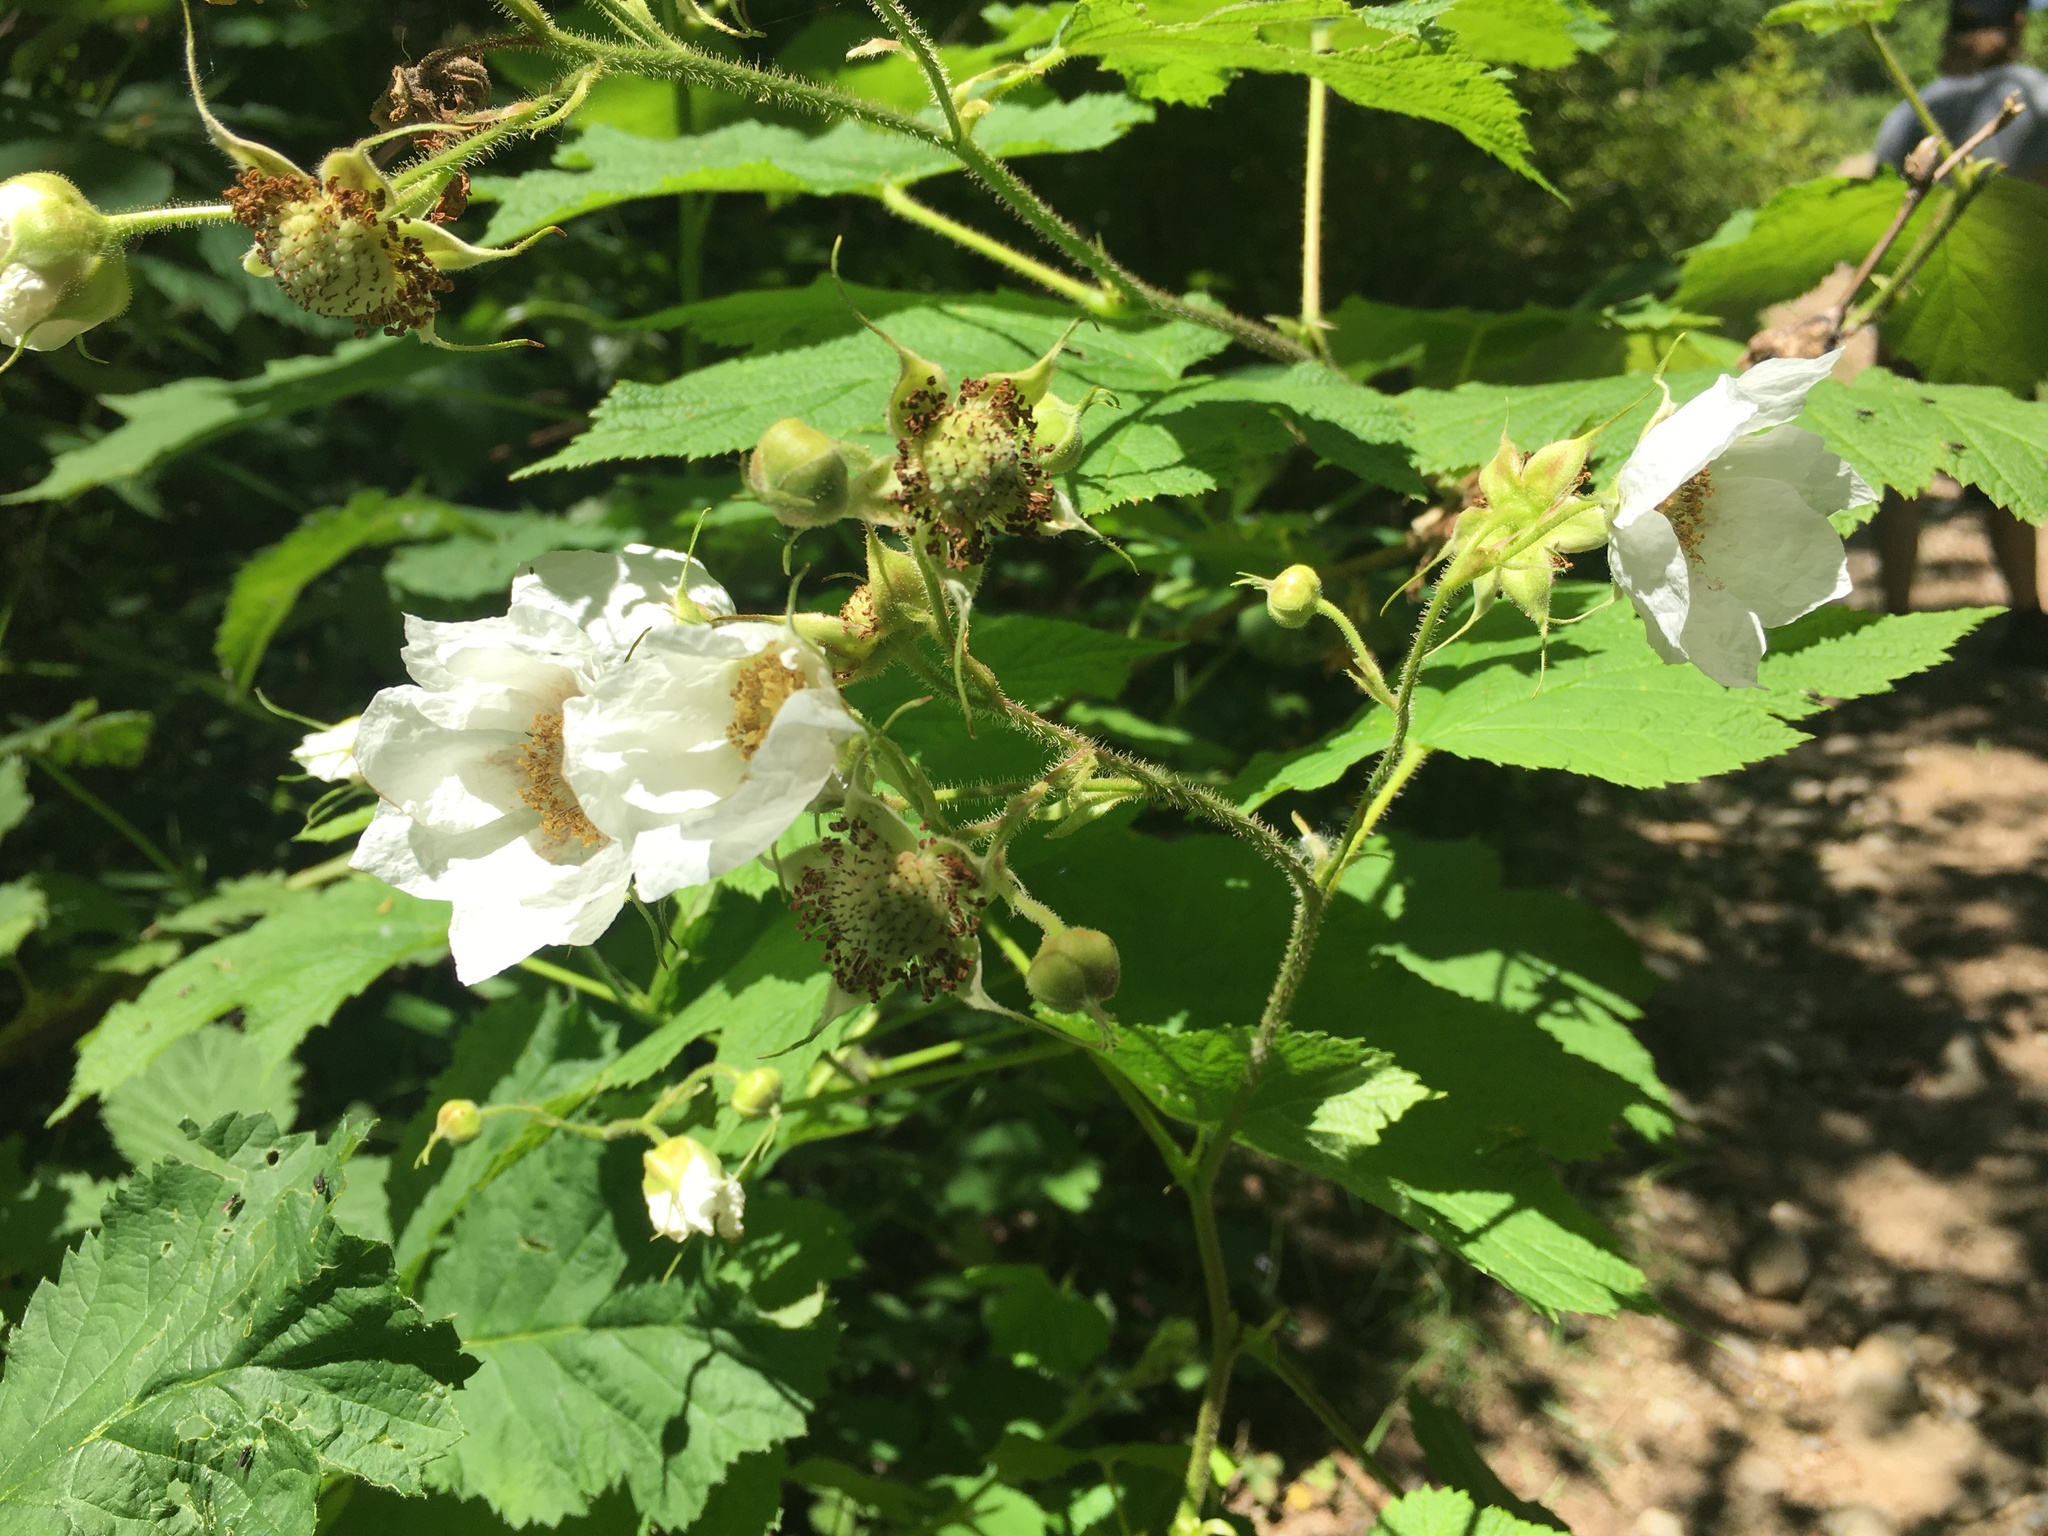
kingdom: Plantae
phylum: Tracheophyta
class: Magnoliopsida
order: Rosales
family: Rosaceae
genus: Rubus
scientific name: Rubus parviflorus
